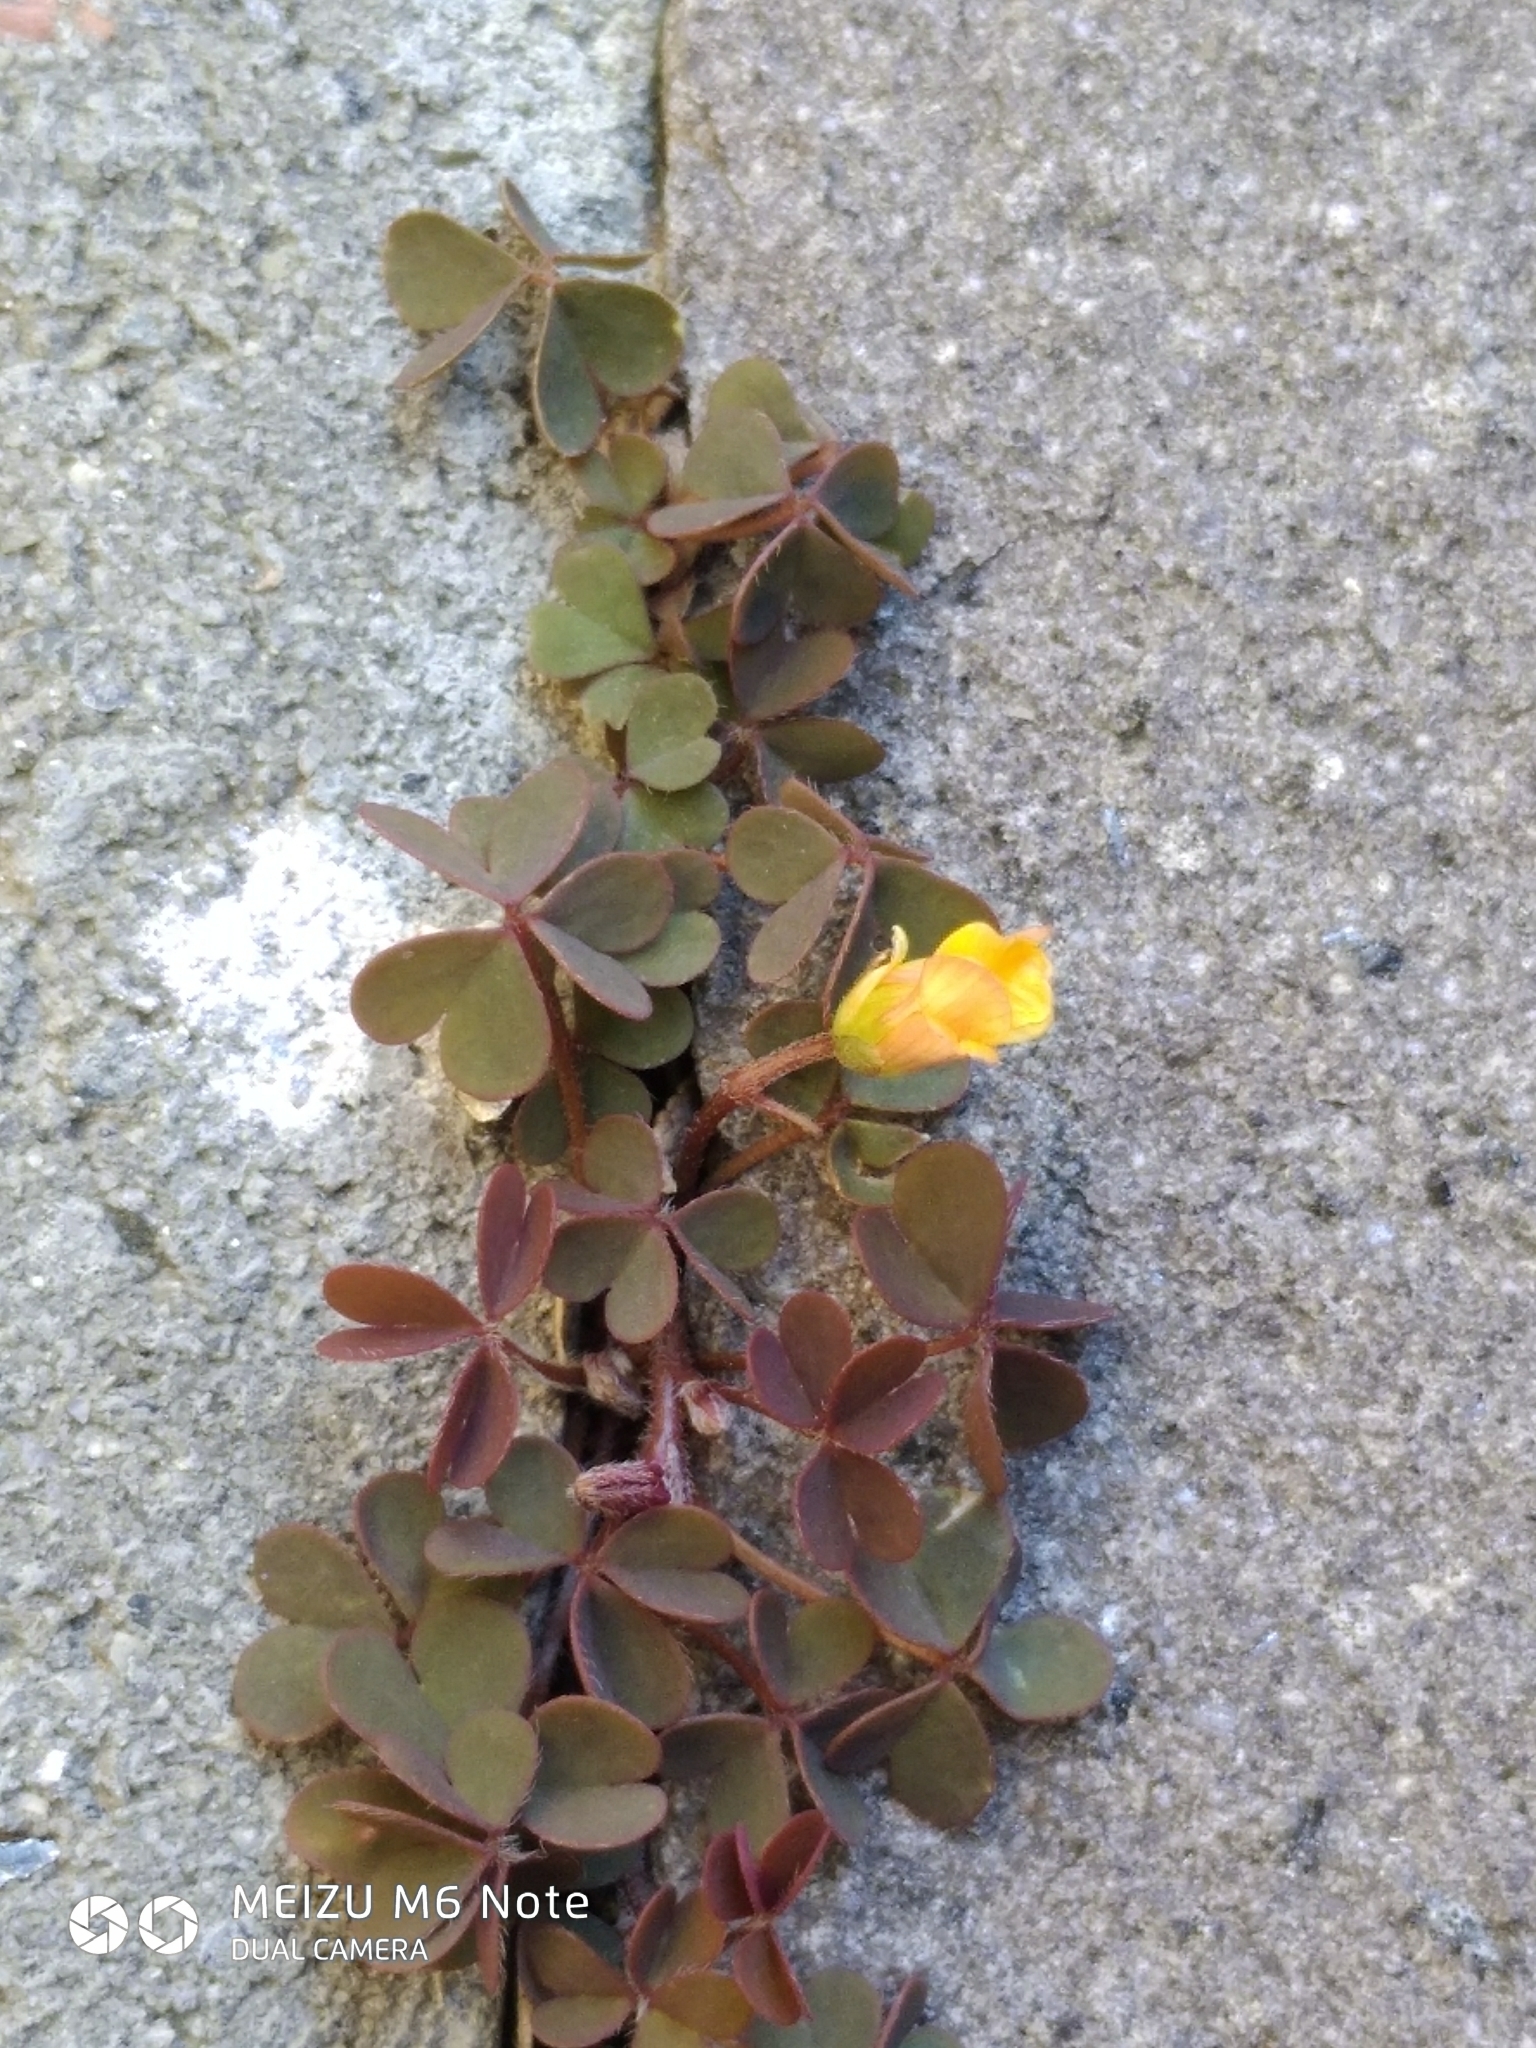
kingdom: Plantae
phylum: Tracheophyta
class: Magnoliopsida
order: Oxalidales
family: Oxalidaceae
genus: Oxalis
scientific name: Oxalis corniculata
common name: Procumbent yellow-sorrel
